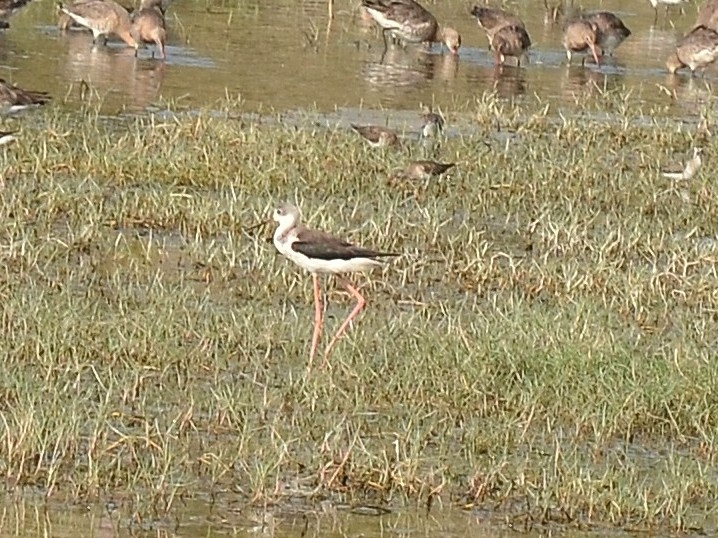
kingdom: Animalia
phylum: Chordata
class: Aves
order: Charadriiformes
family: Recurvirostridae
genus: Himantopus
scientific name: Himantopus himantopus
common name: Black-winged stilt
